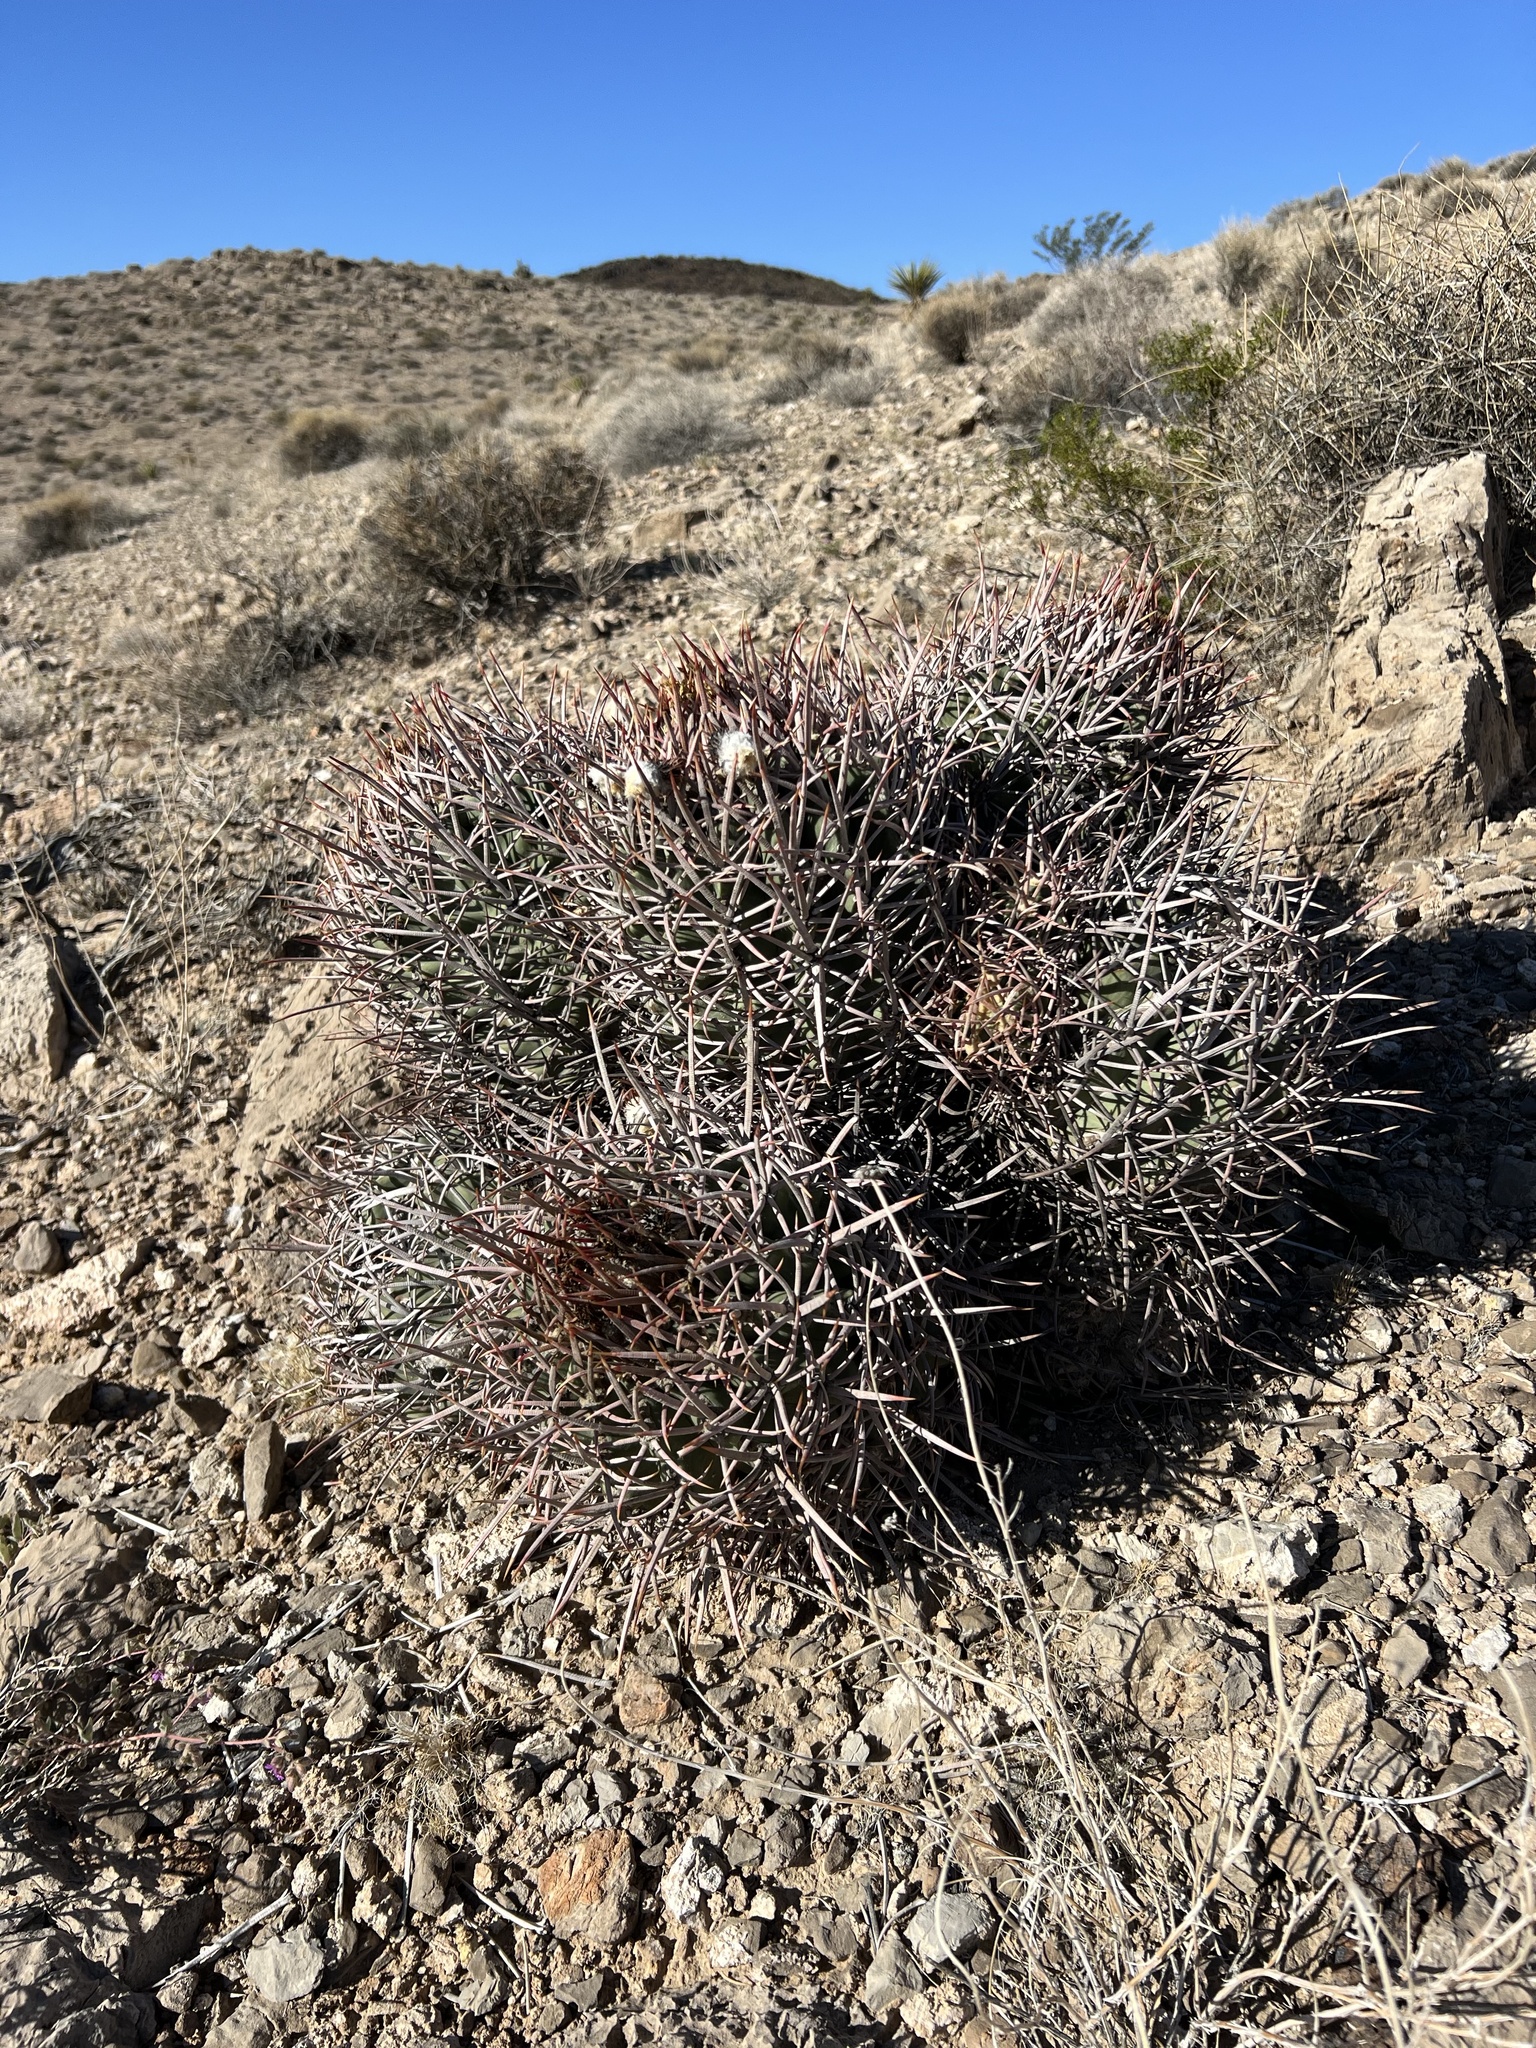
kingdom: Plantae
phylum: Tracheophyta
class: Magnoliopsida
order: Caryophyllales
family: Cactaceae
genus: Echinocactus
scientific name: Echinocactus polycephalus
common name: Cottontop cactus
